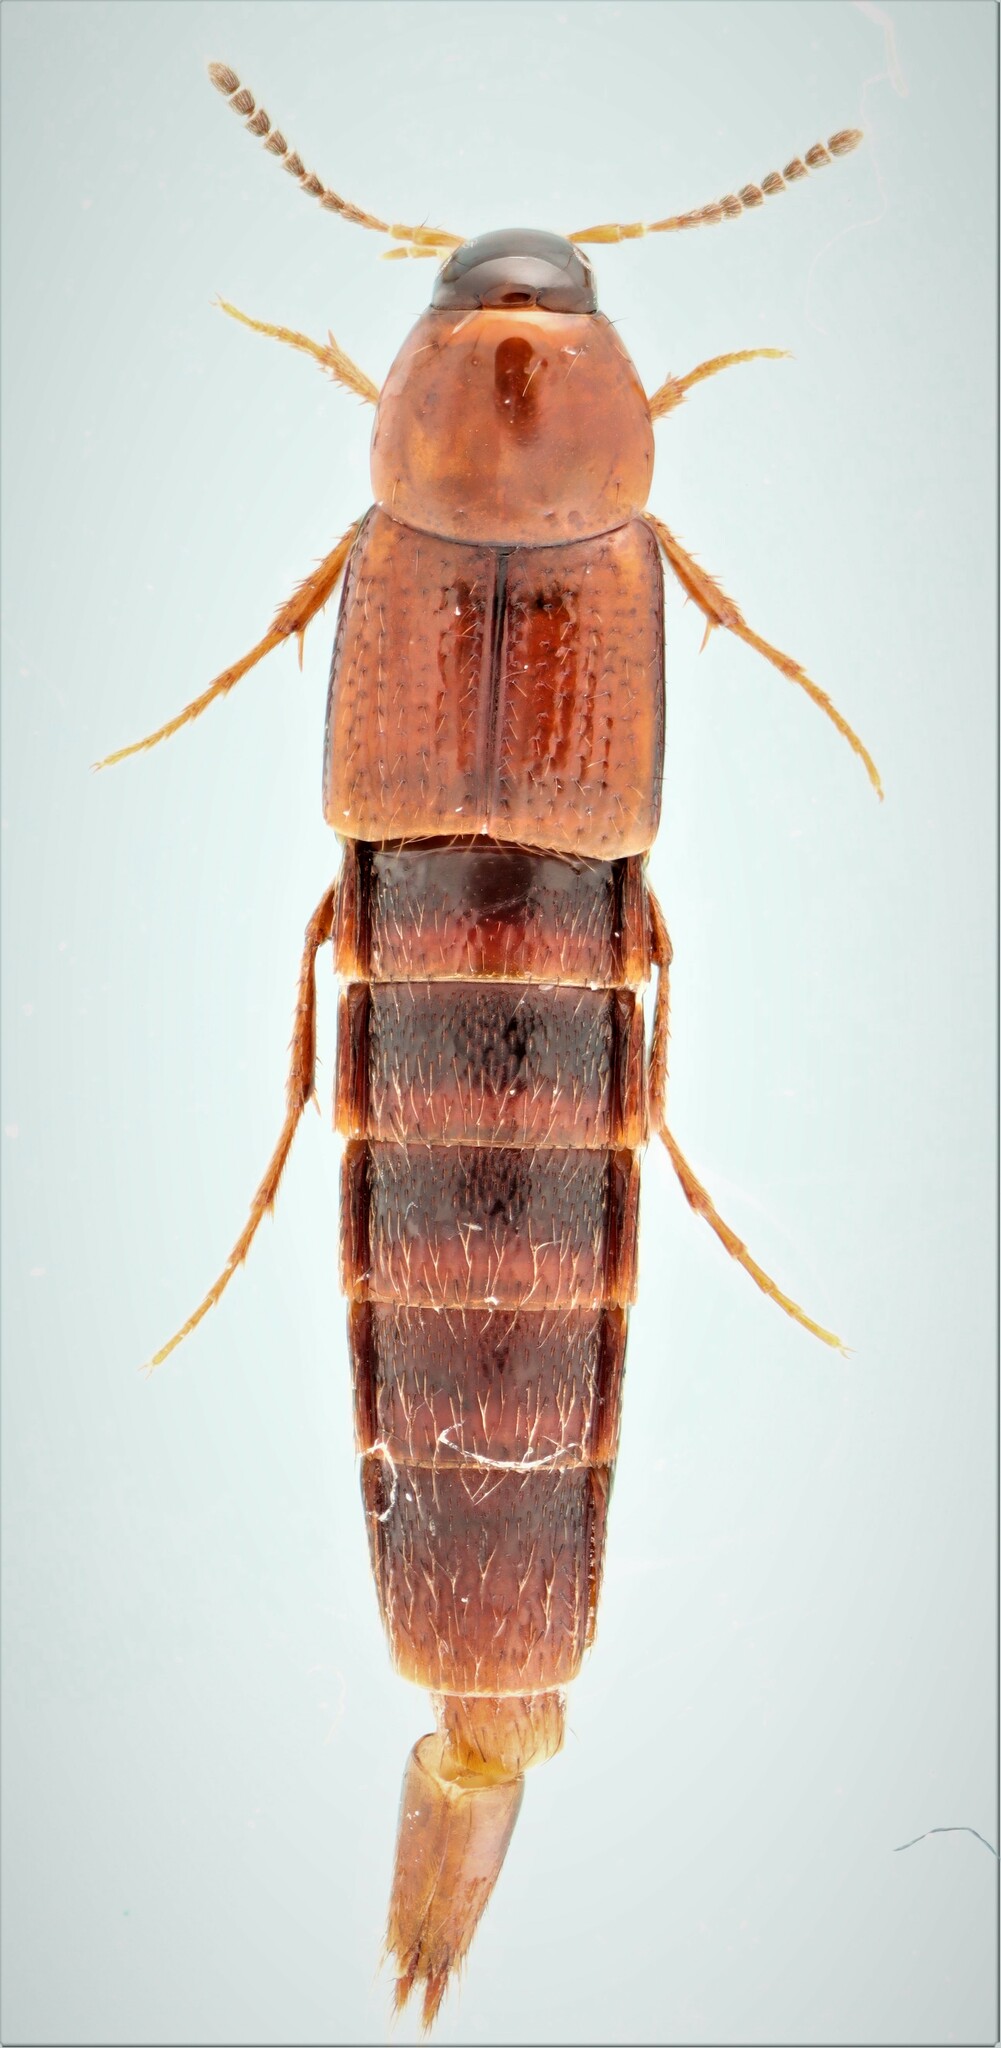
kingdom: Animalia
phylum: Arthropoda
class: Insecta
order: Coleoptera
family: Staphylinidae
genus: Bryoporus
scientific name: Bryoporus rufescens
